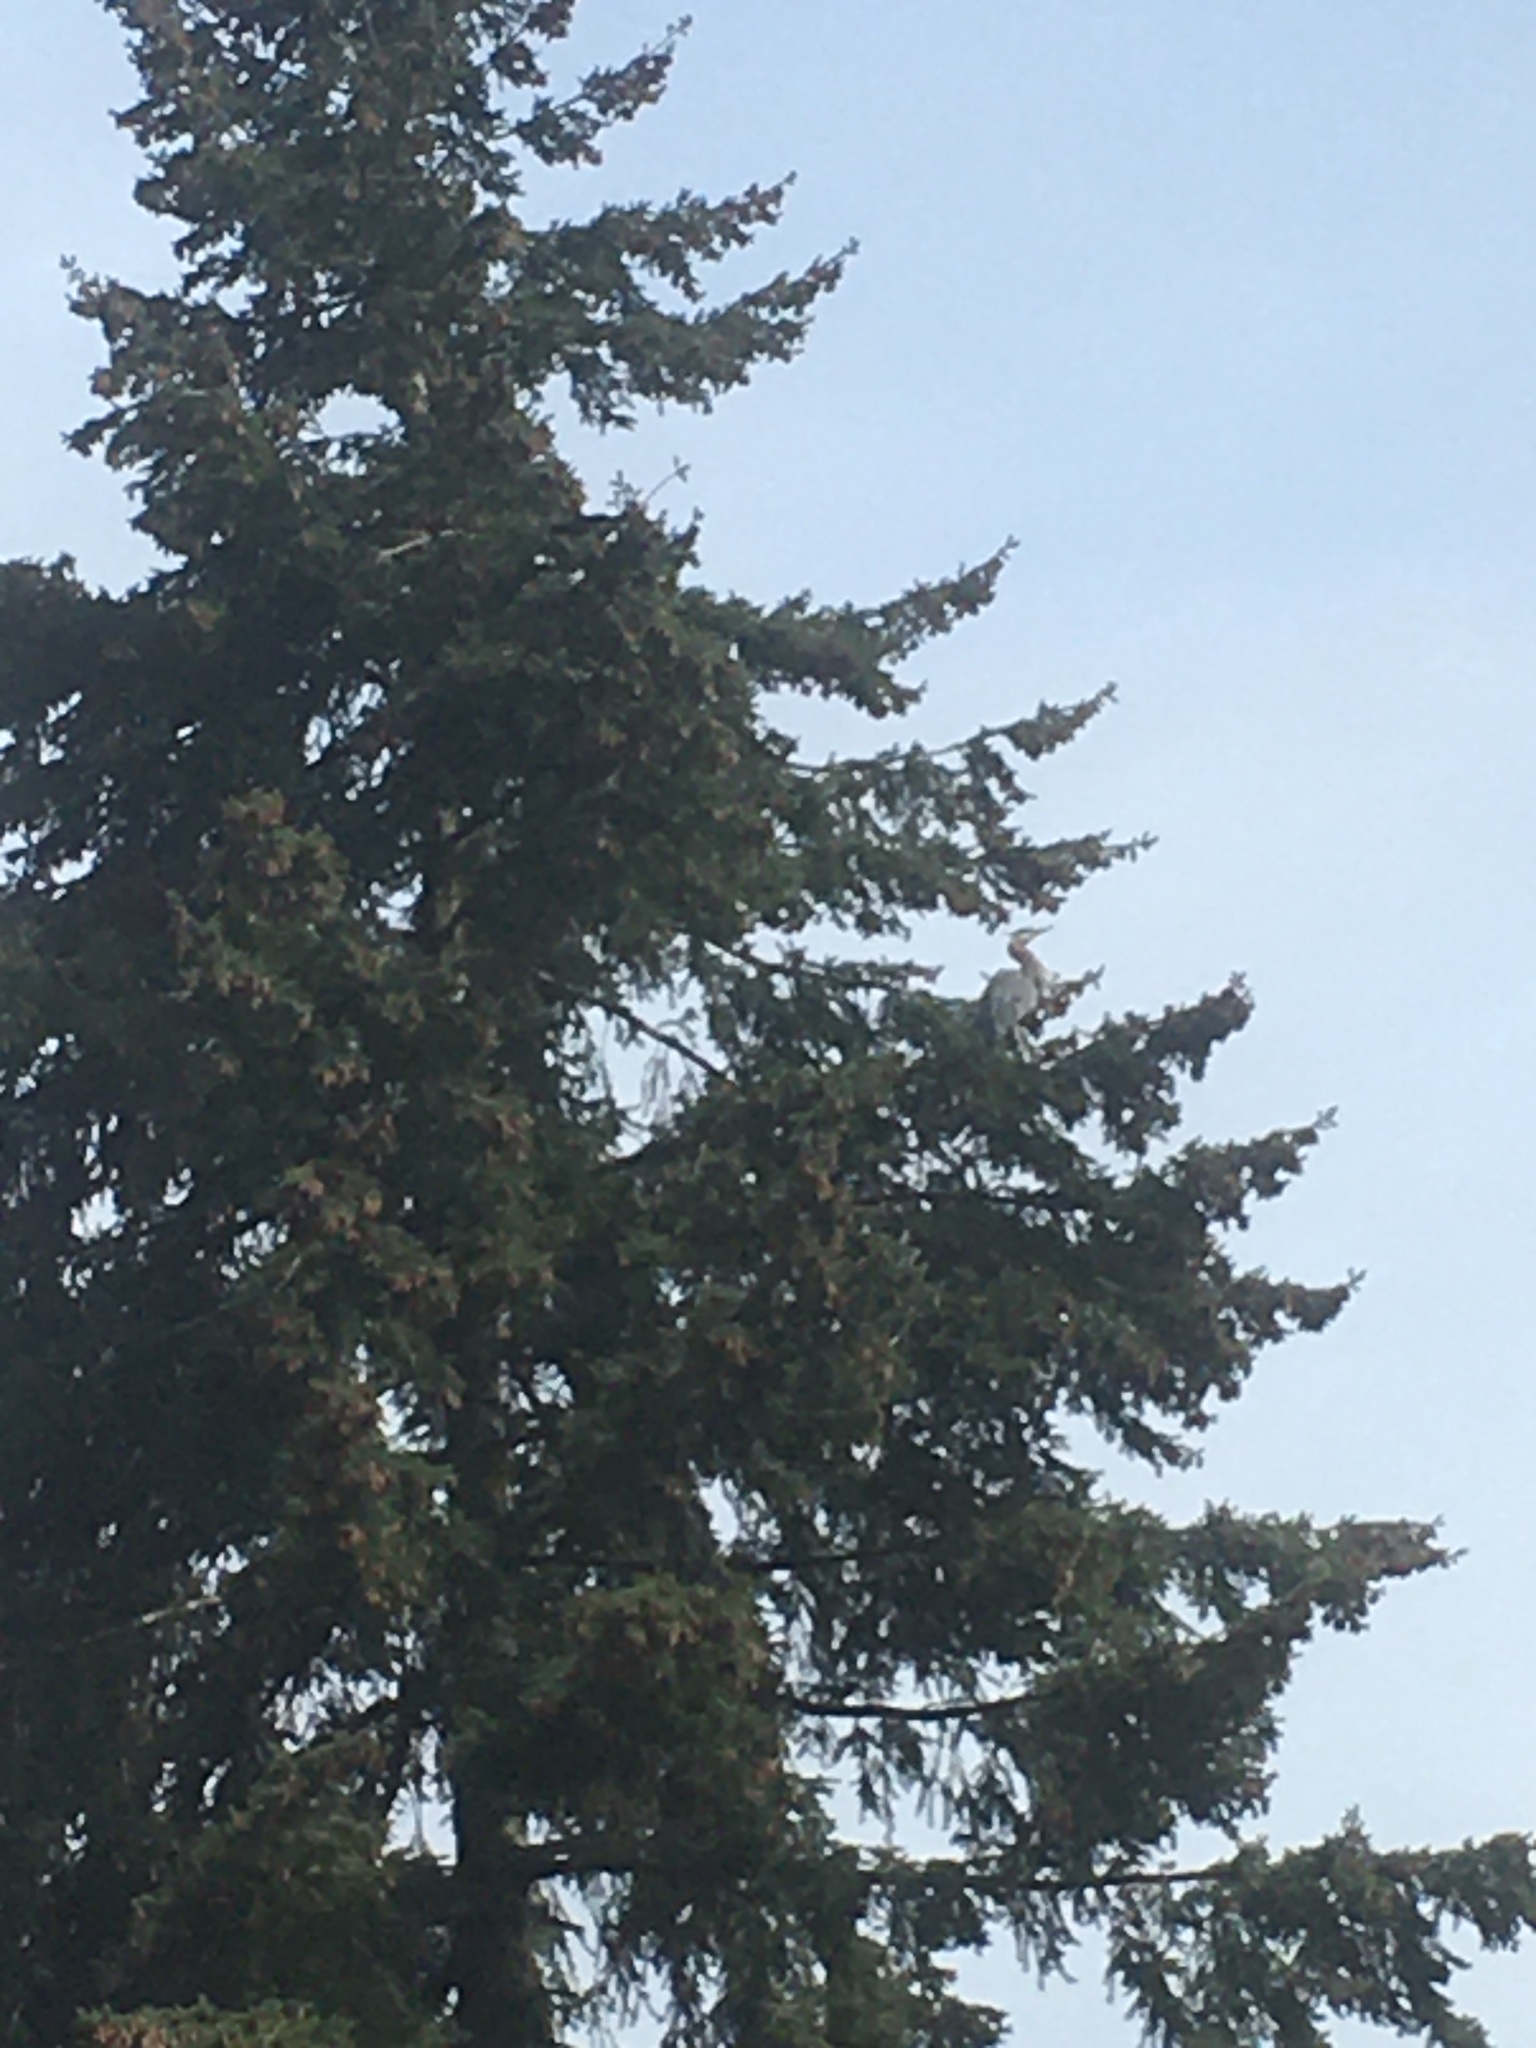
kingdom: Animalia
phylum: Chordata
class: Aves
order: Pelecaniformes
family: Ardeidae
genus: Ardea
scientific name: Ardea herodias
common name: Great blue heron
